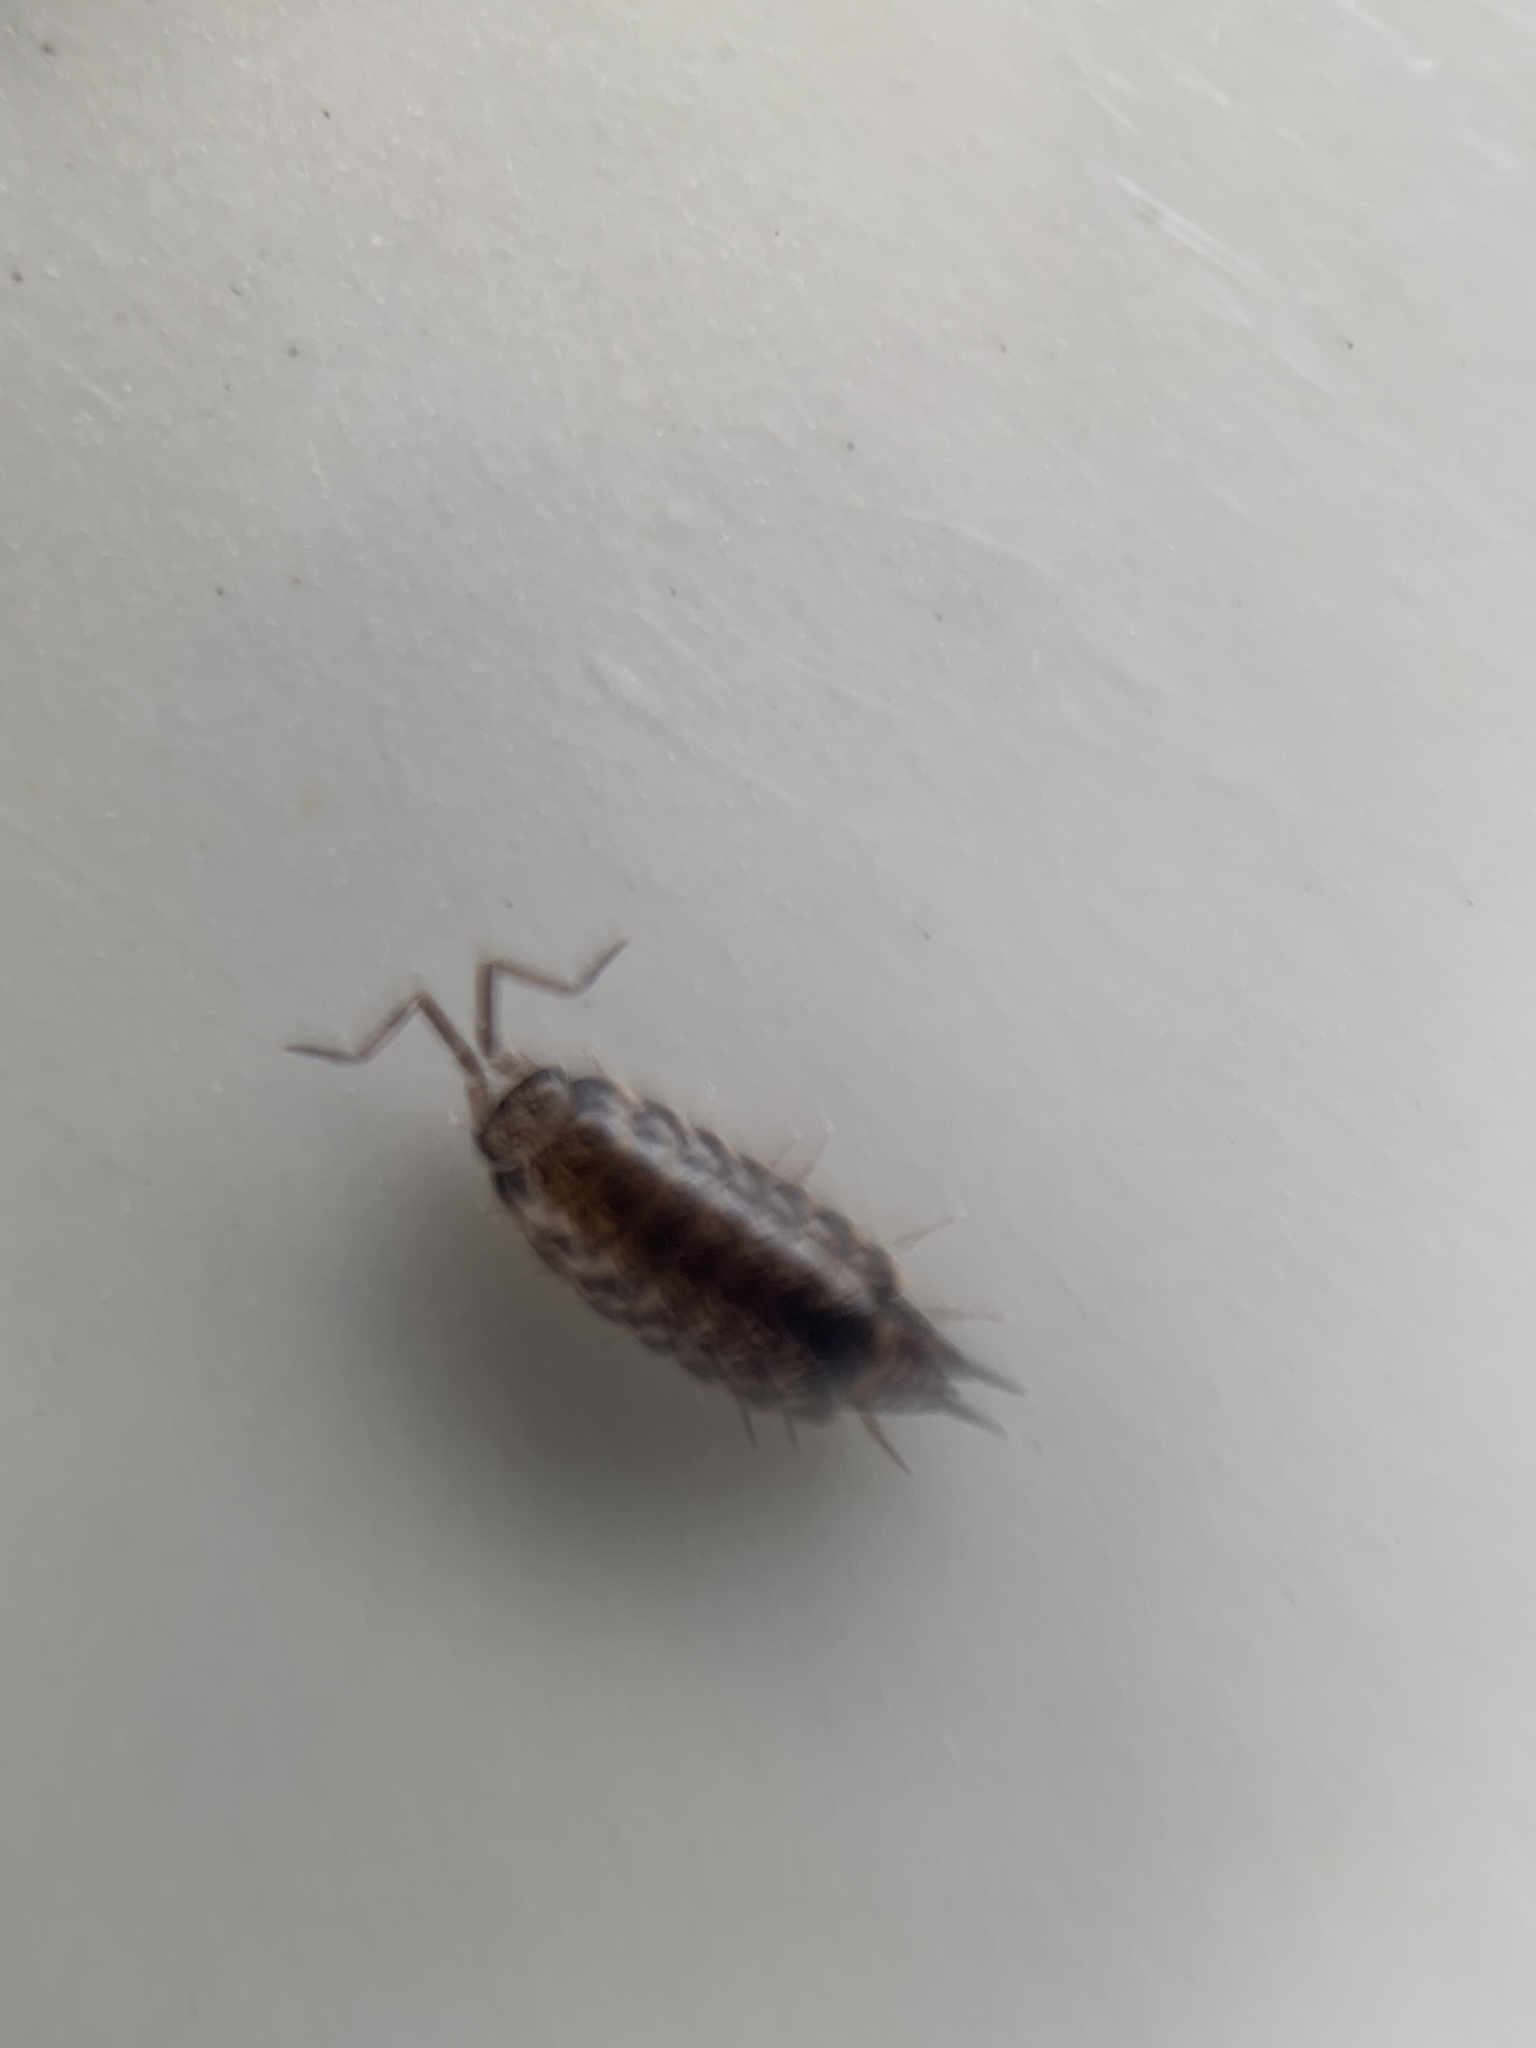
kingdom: Animalia
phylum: Arthropoda
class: Malacostraca
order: Isopoda
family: Philosciidae
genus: Australophiloscia
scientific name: Australophiloscia societatis
